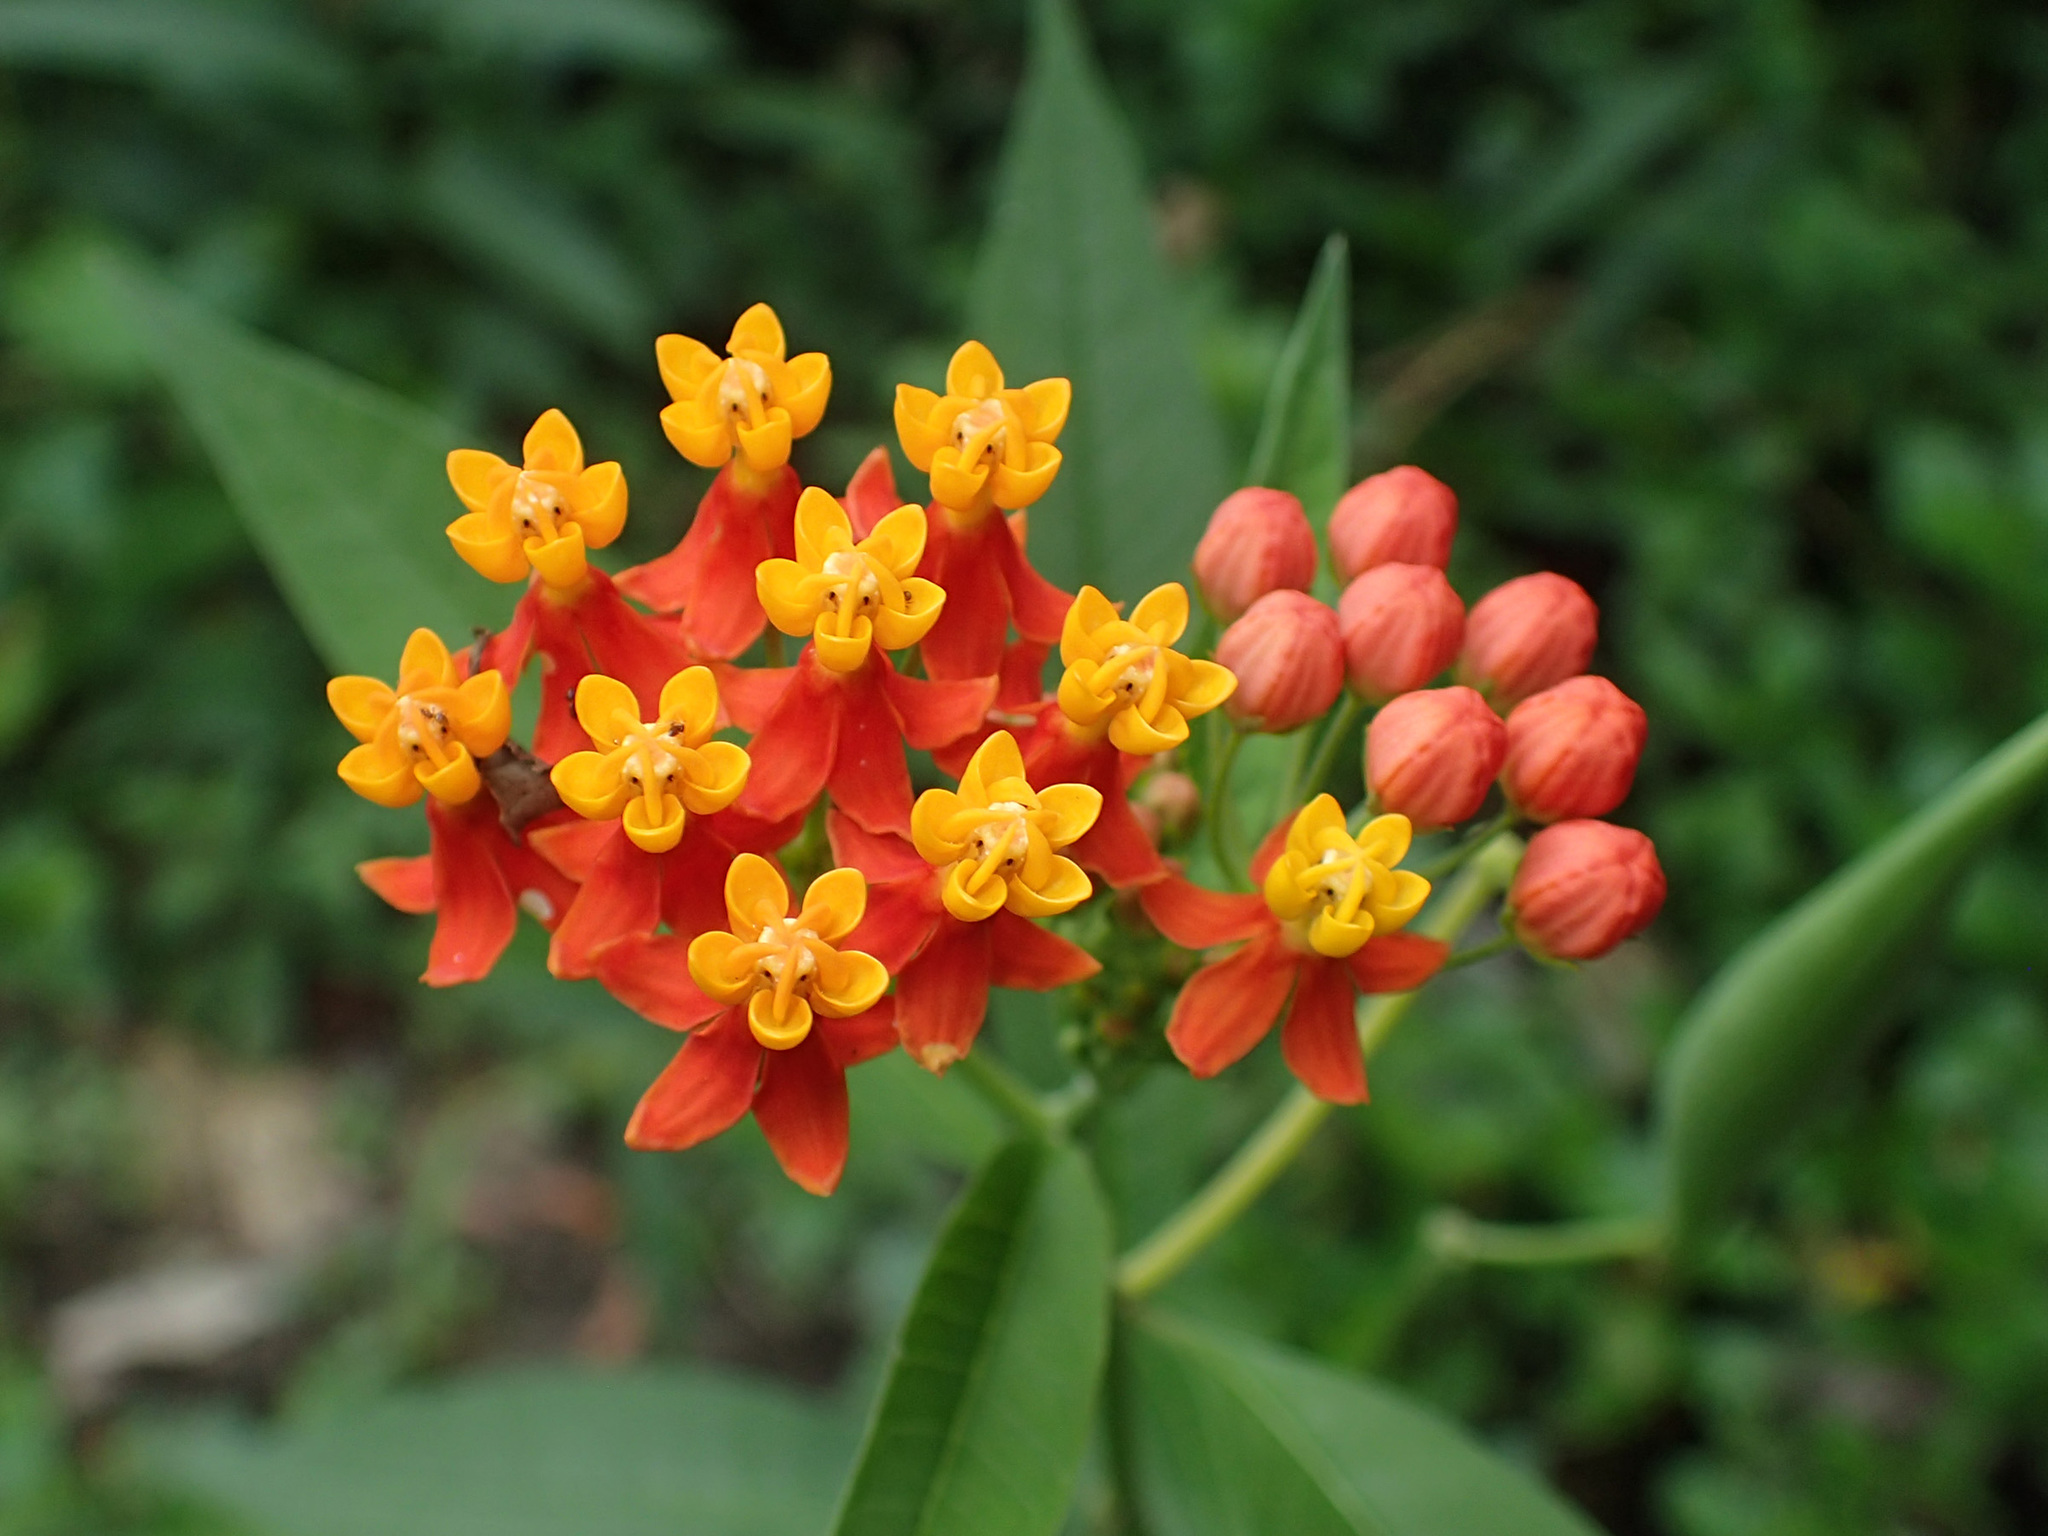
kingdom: Plantae
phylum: Tracheophyta
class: Magnoliopsida
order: Gentianales
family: Apocynaceae
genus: Asclepias
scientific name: Asclepias curassavica
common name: Bloodflower
